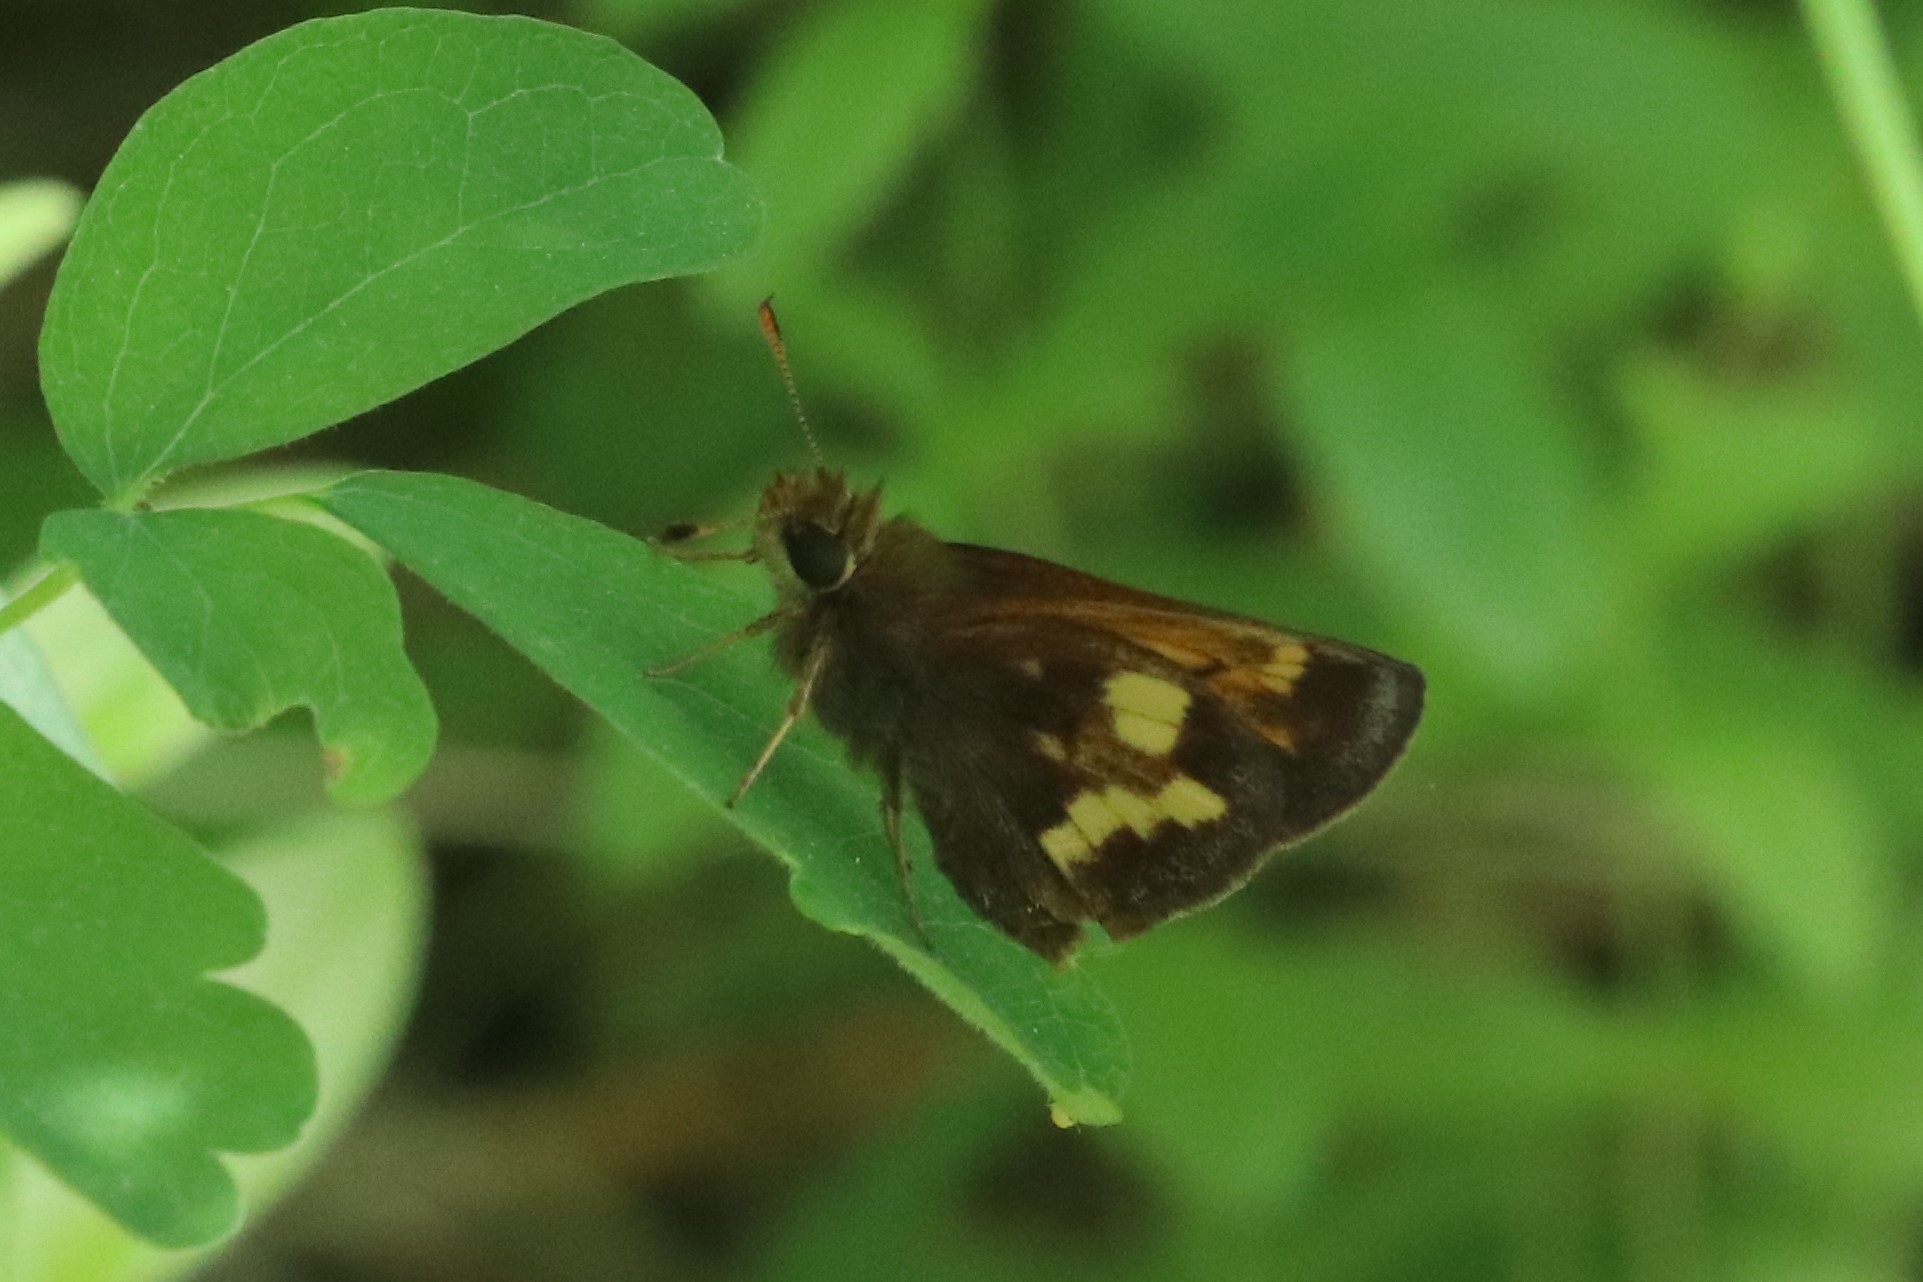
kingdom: Animalia
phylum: Arthropoda
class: Insecta
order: Lepidoptera
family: Hesperiidae
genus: Lon
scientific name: Lon hobomok
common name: Hobomok skipper
